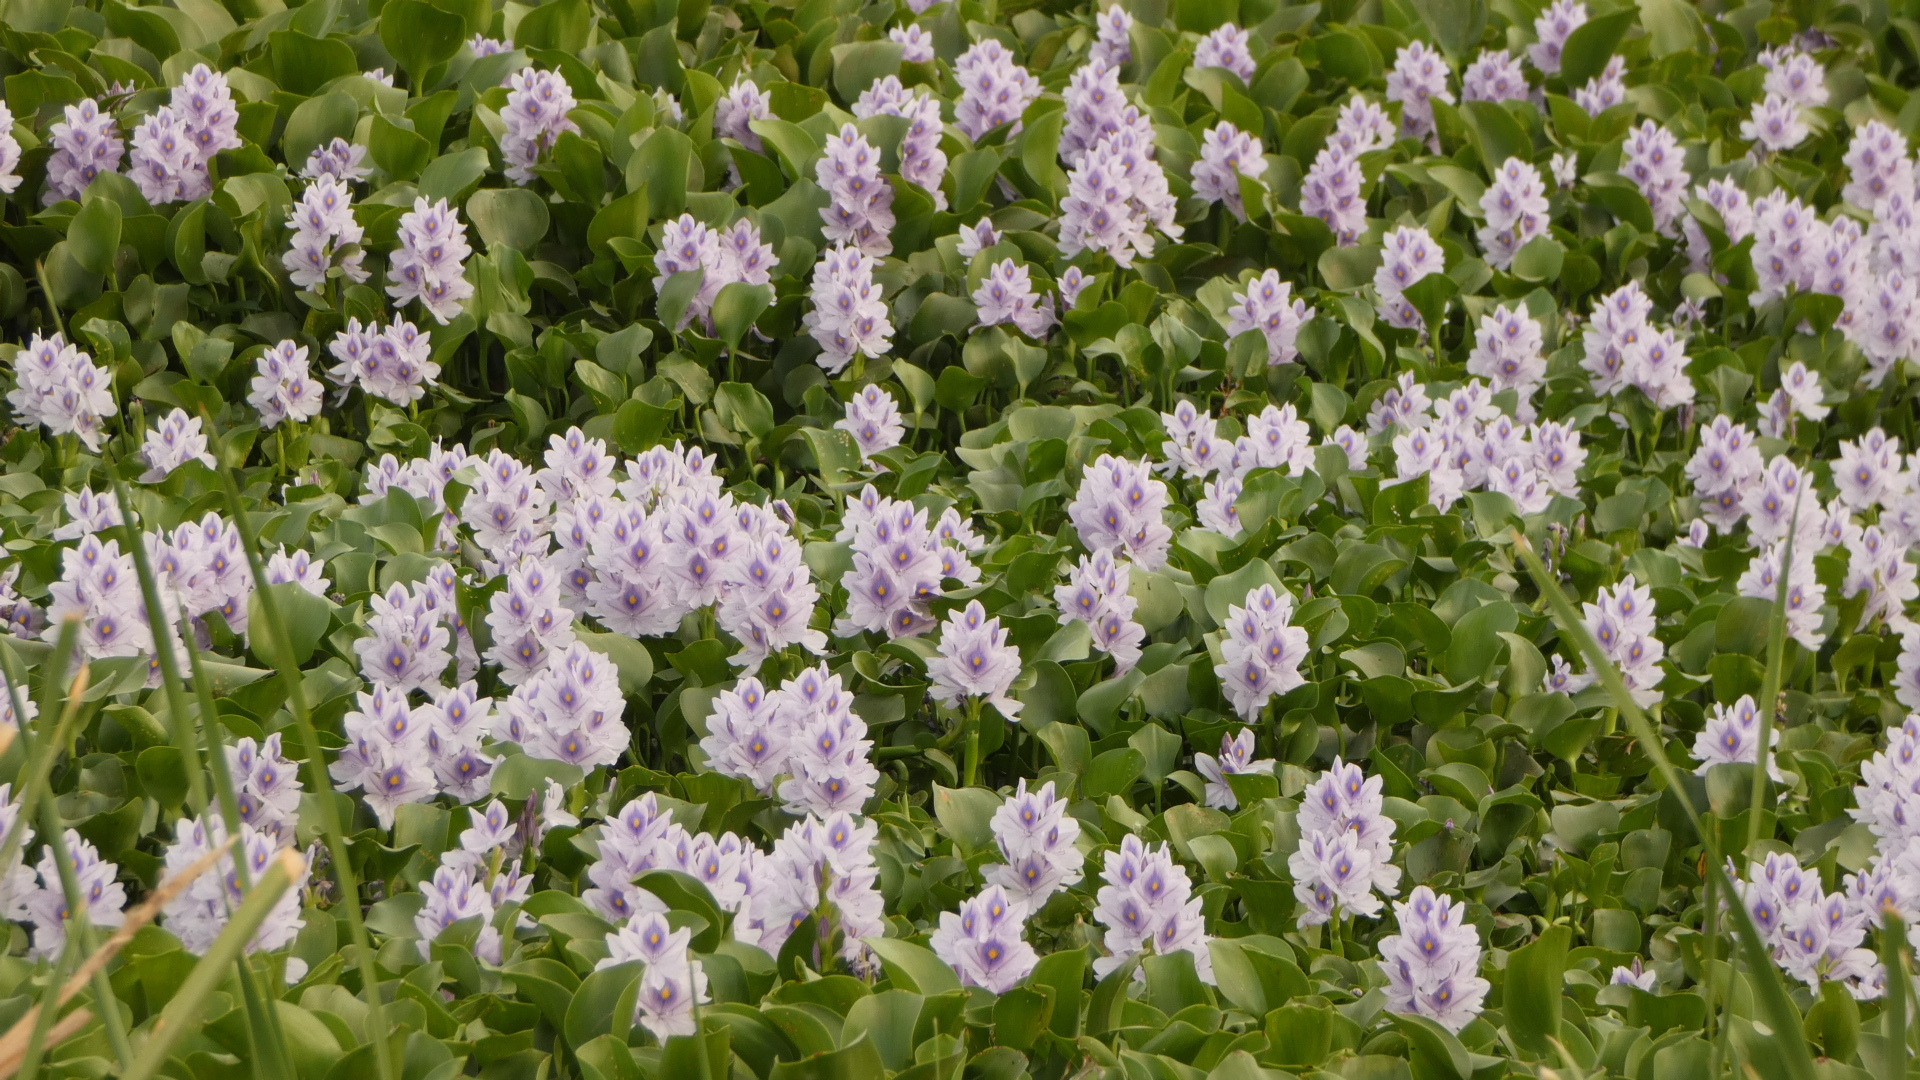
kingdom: Plantae
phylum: Tracheophyta
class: Liliopsida
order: Commelinales
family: Pontederiaceae
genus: Pontederia
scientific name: Pontederia crassipes
